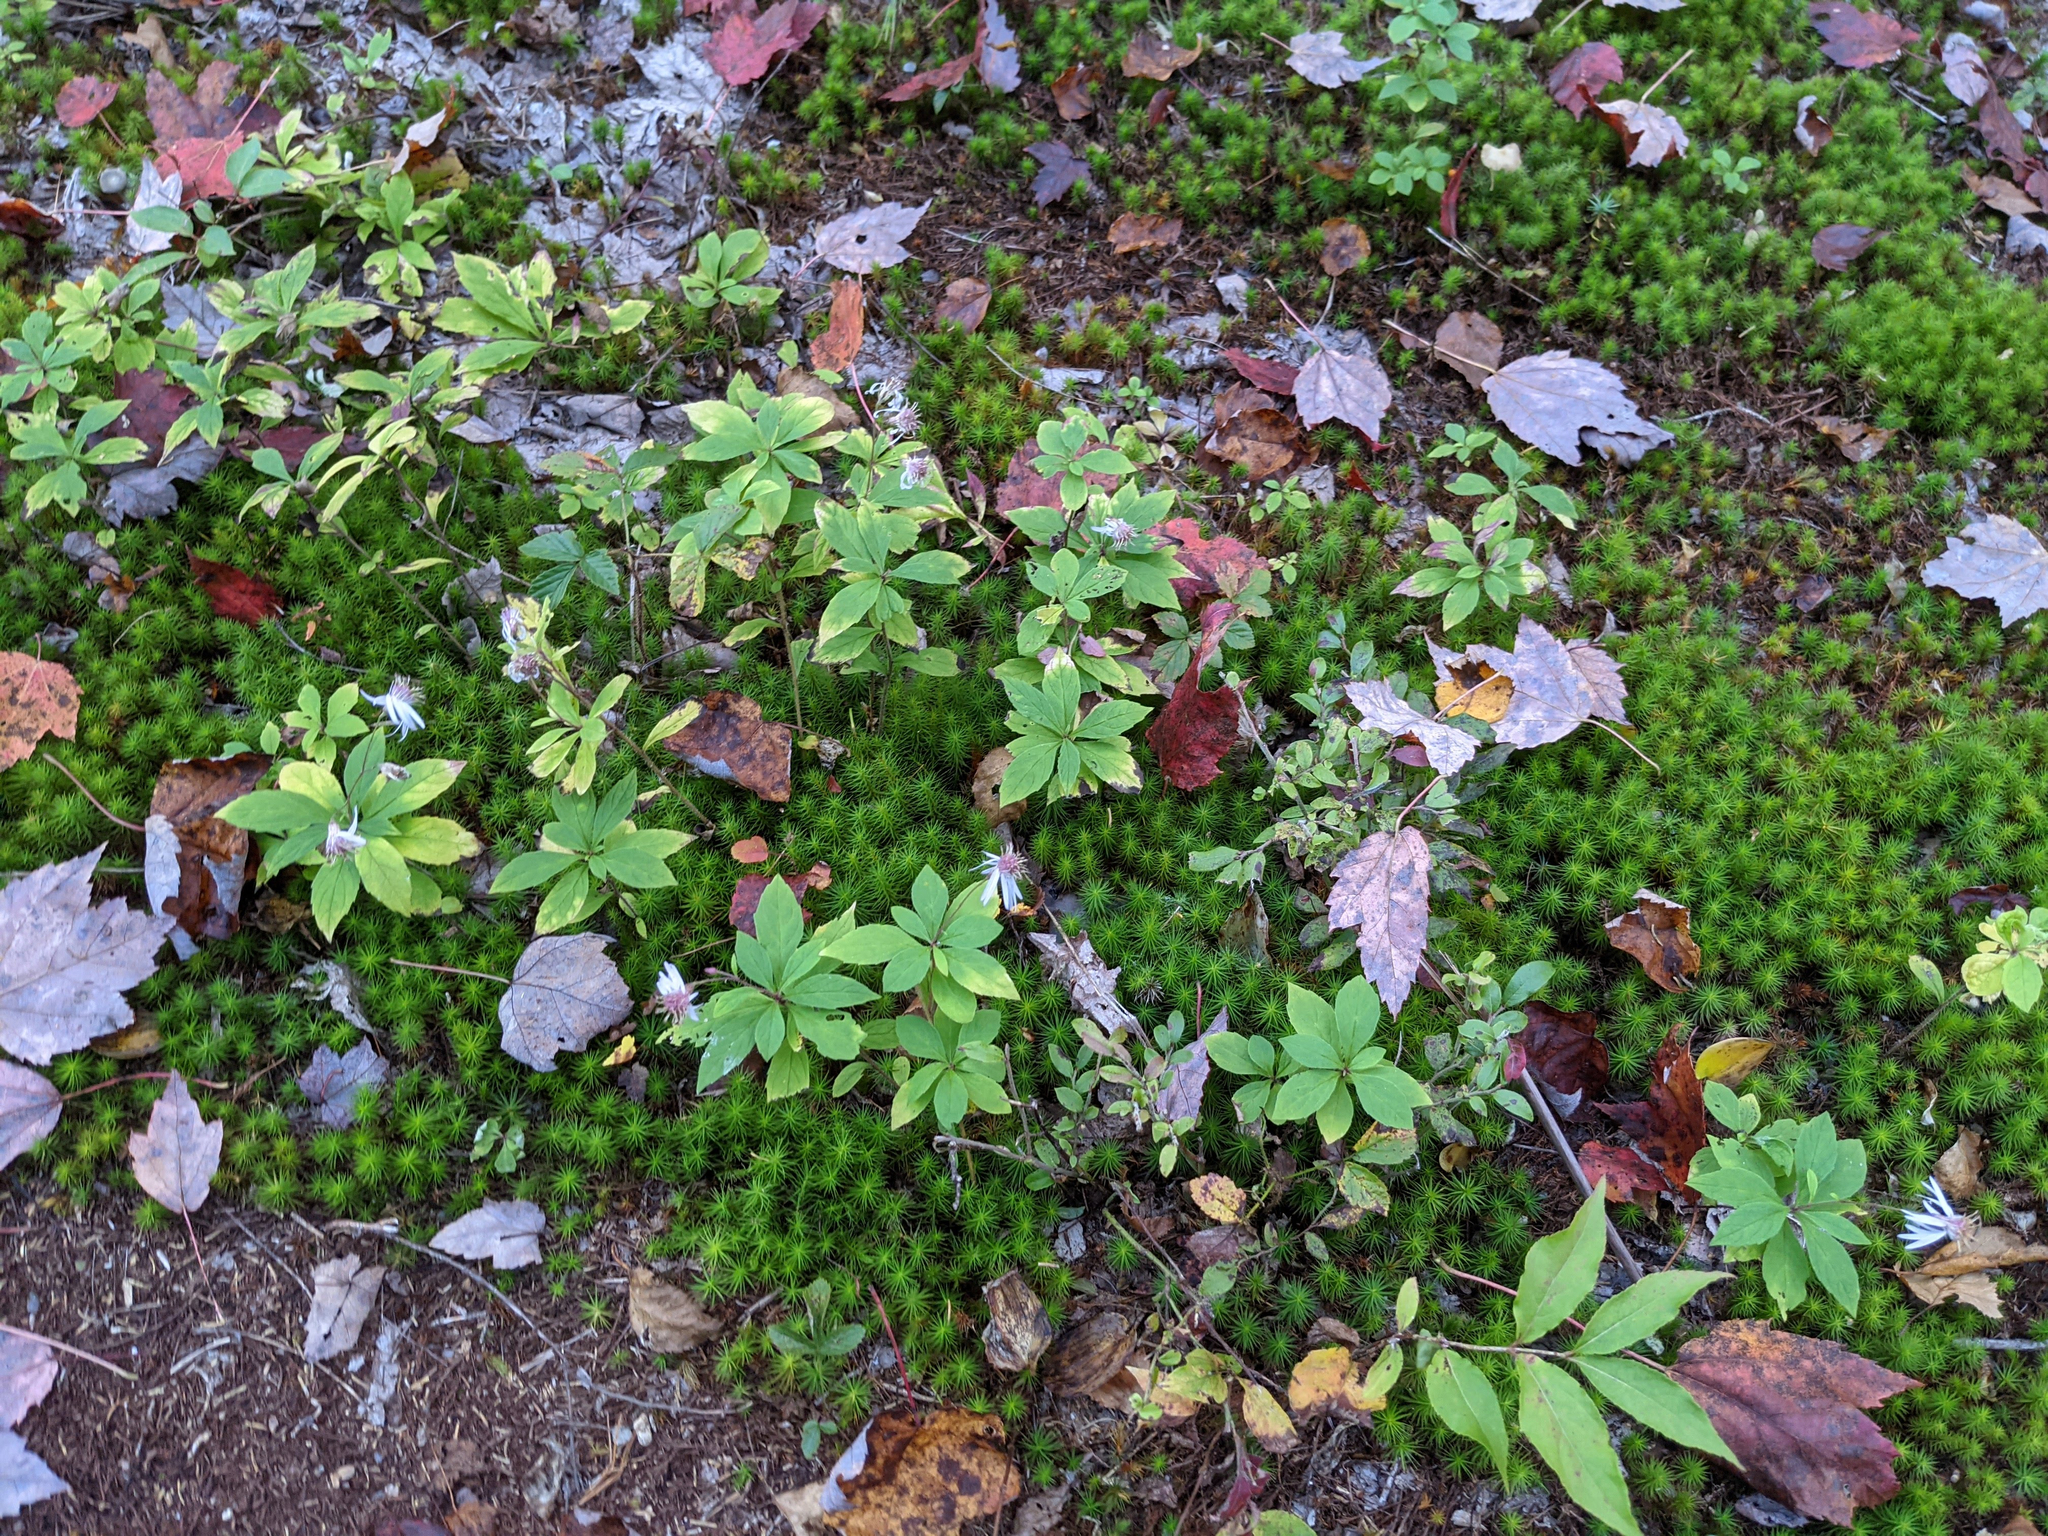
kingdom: Plantae
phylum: Tracheophyta
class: Magnoliopsida
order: Asterales
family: Asteraceae
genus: Oclemena
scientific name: Oclemena acuminata
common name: Mountain aster
